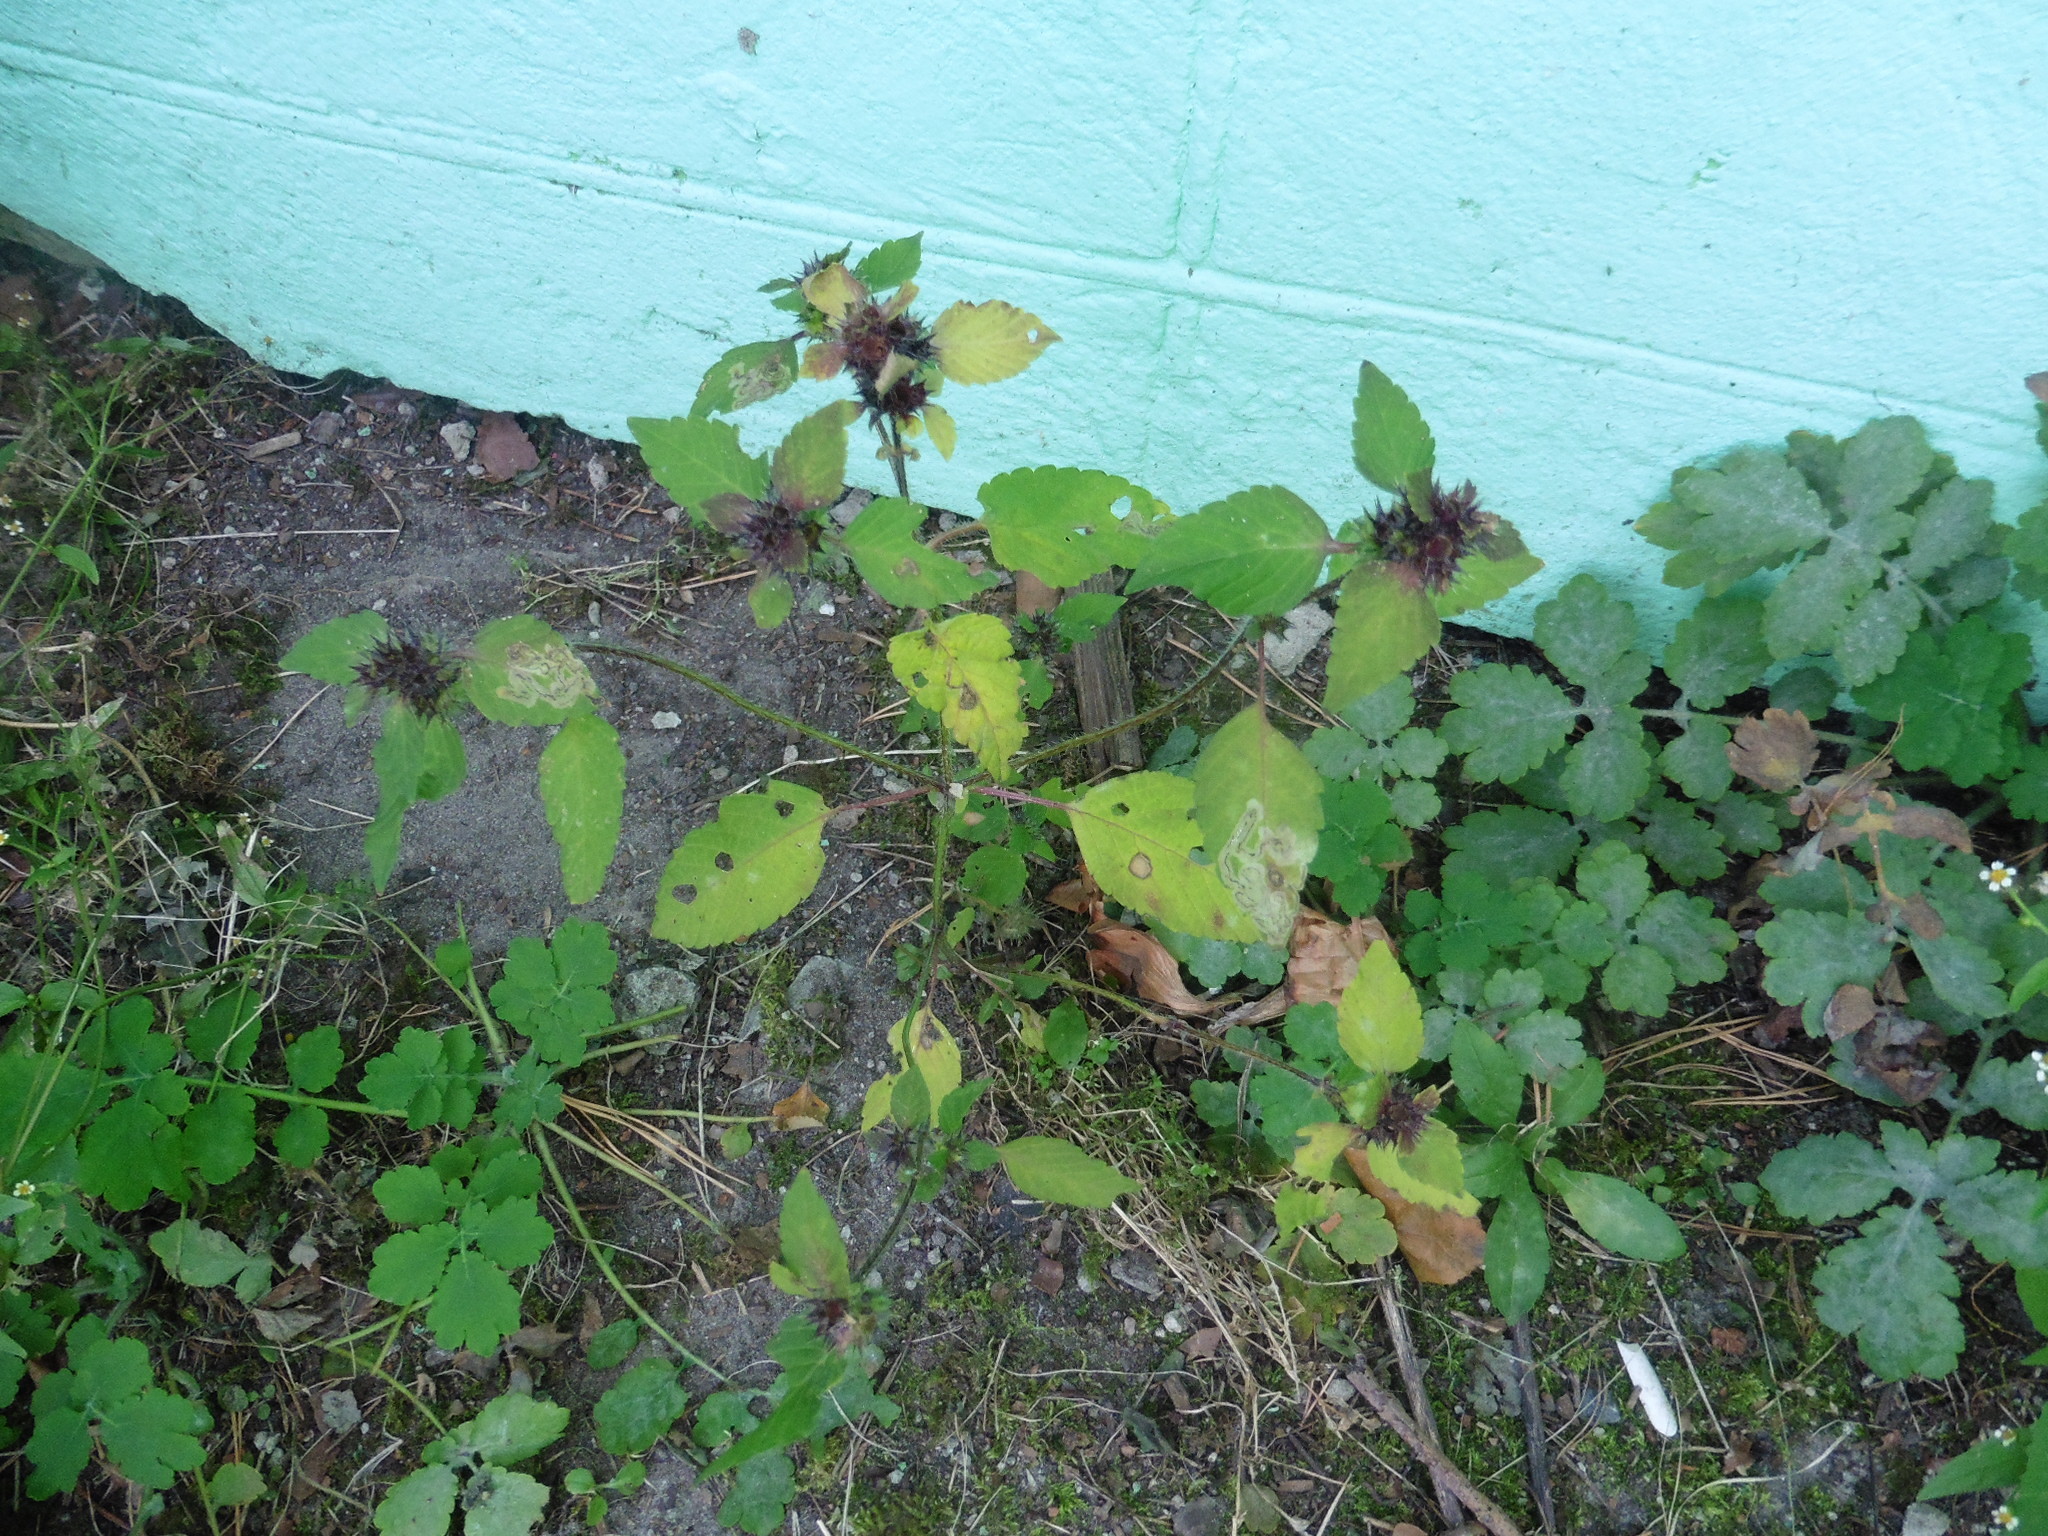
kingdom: Plantae
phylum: Tracheophyta
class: Magnoliopsida
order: Lamiales
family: Lamiaceae
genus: Galeopsis
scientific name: Galeopsis bifida
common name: Bifid hemp-nettle
